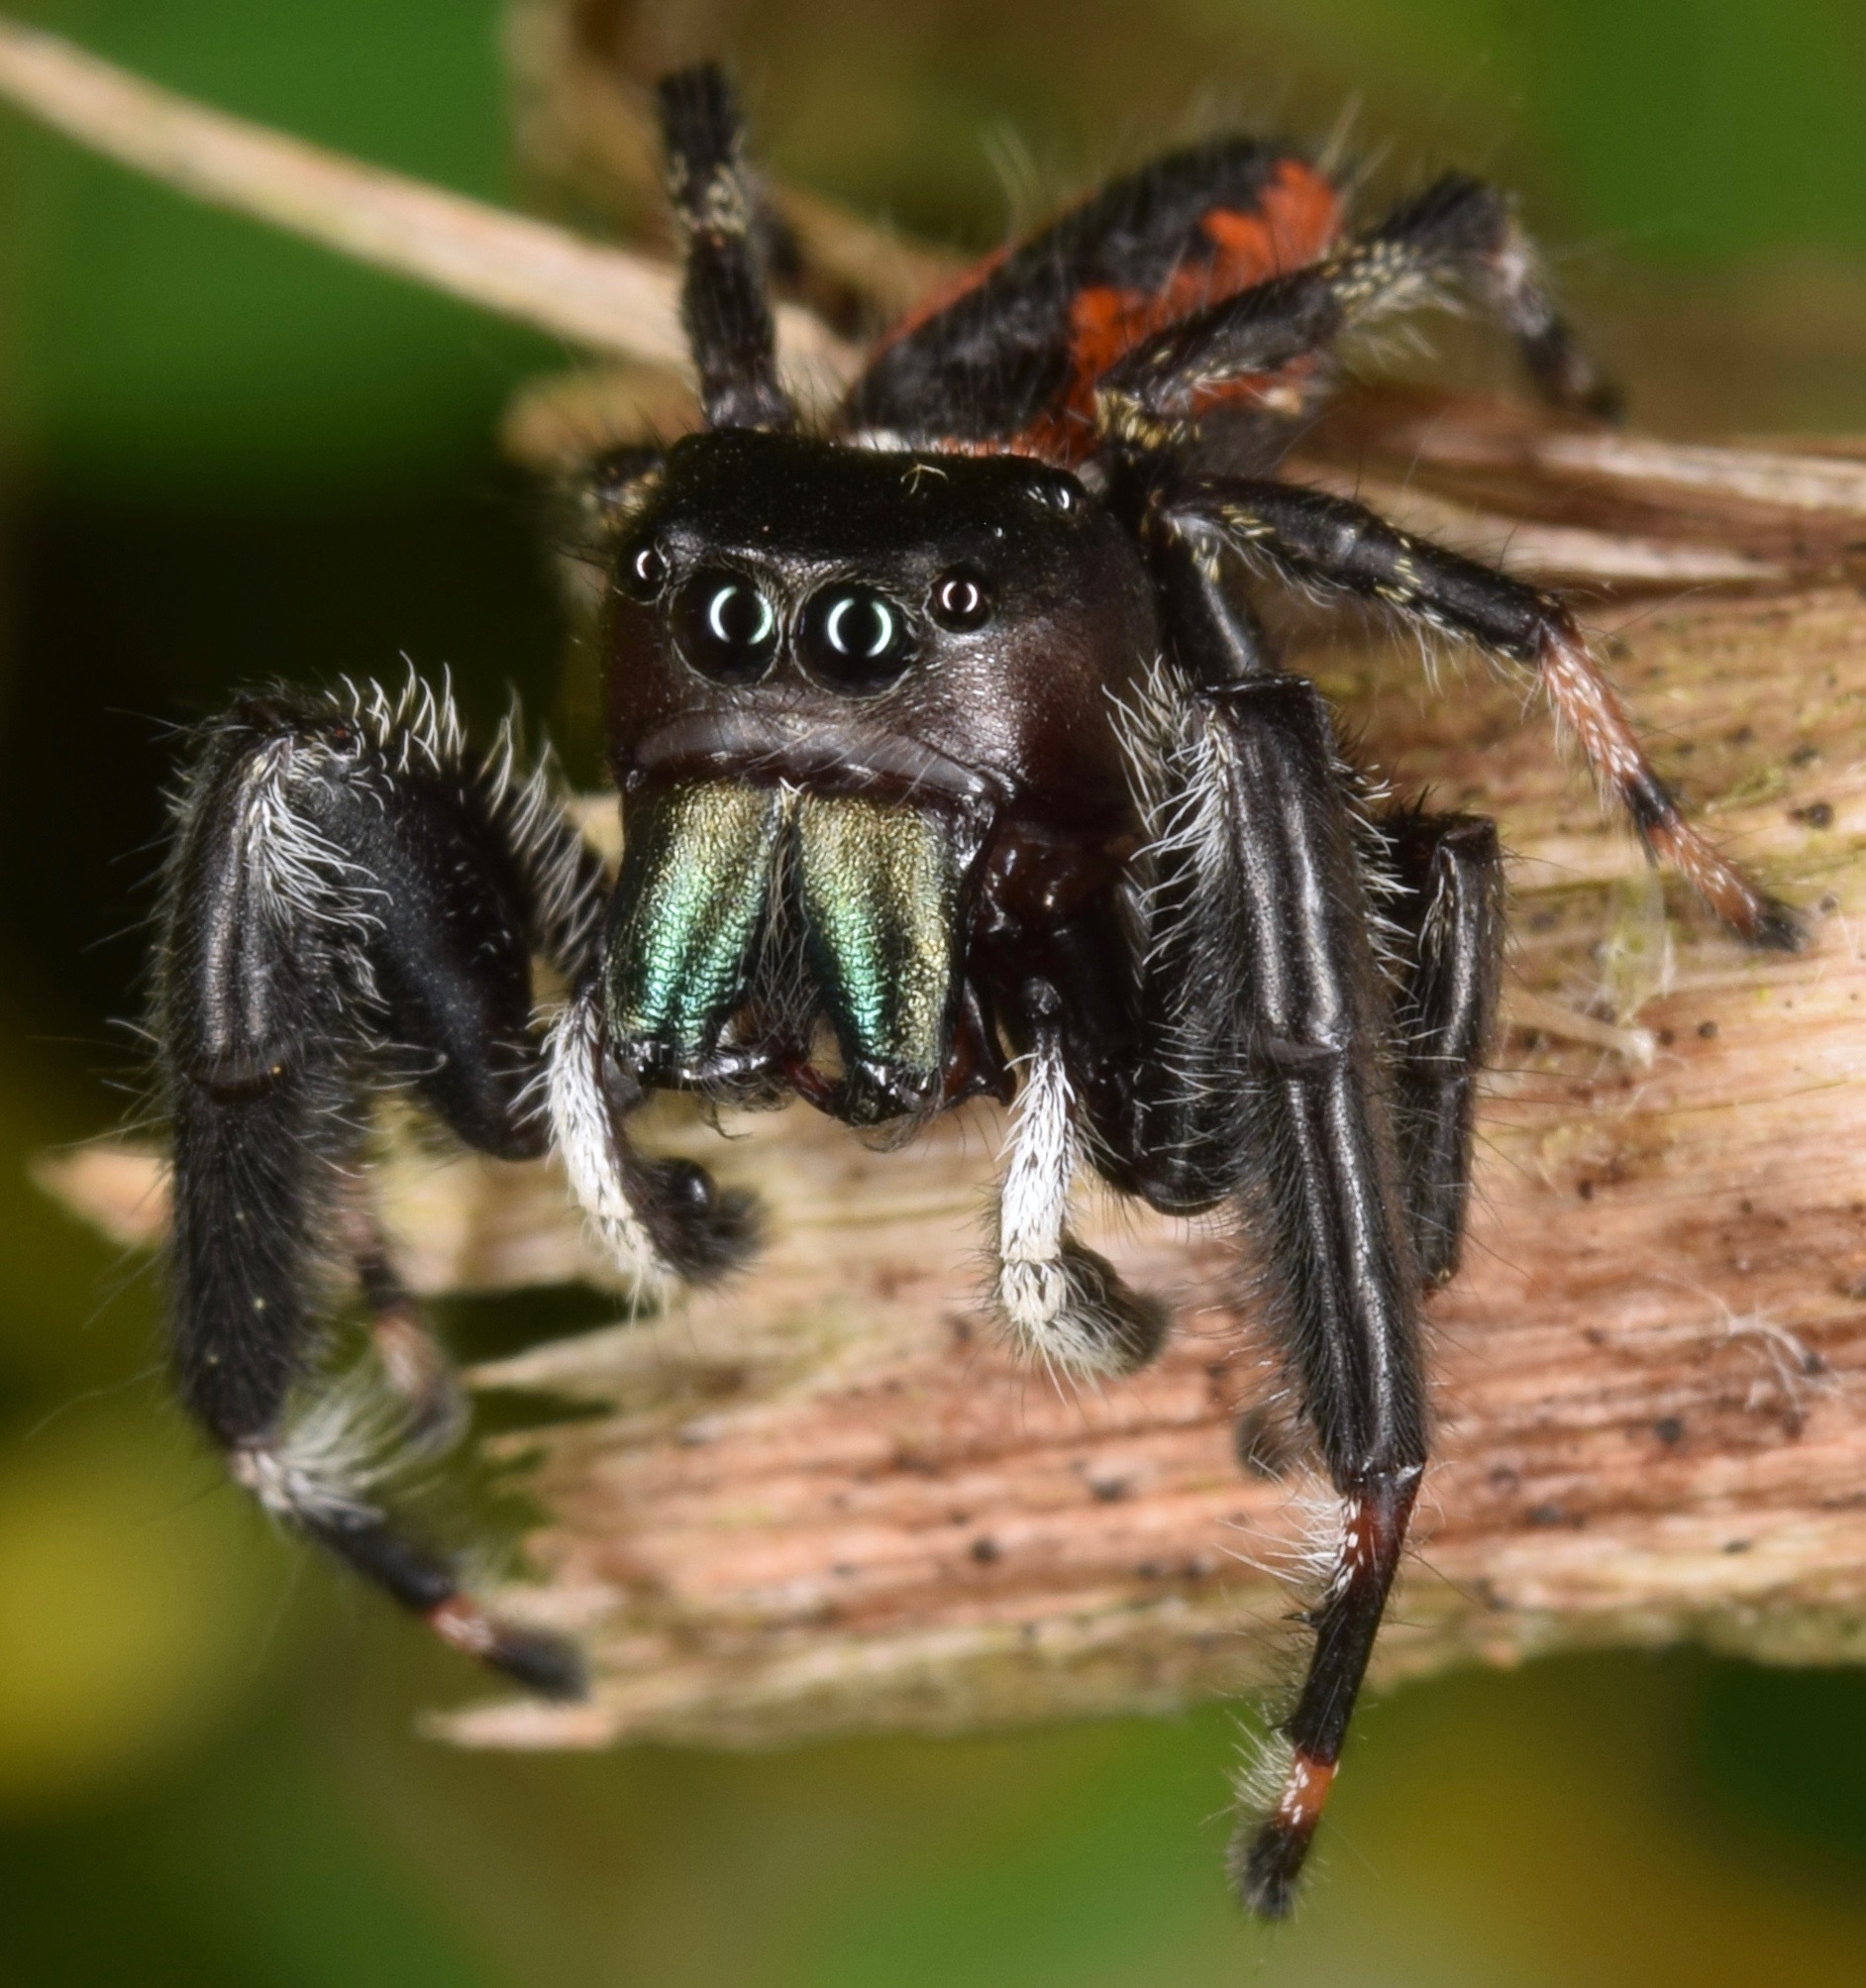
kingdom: Animalia
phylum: Arthropoda
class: Arachnida
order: Araneae
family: Salticidae
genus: Phidippus
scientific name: Phidippus clarus
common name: Brilliant jumping spider
